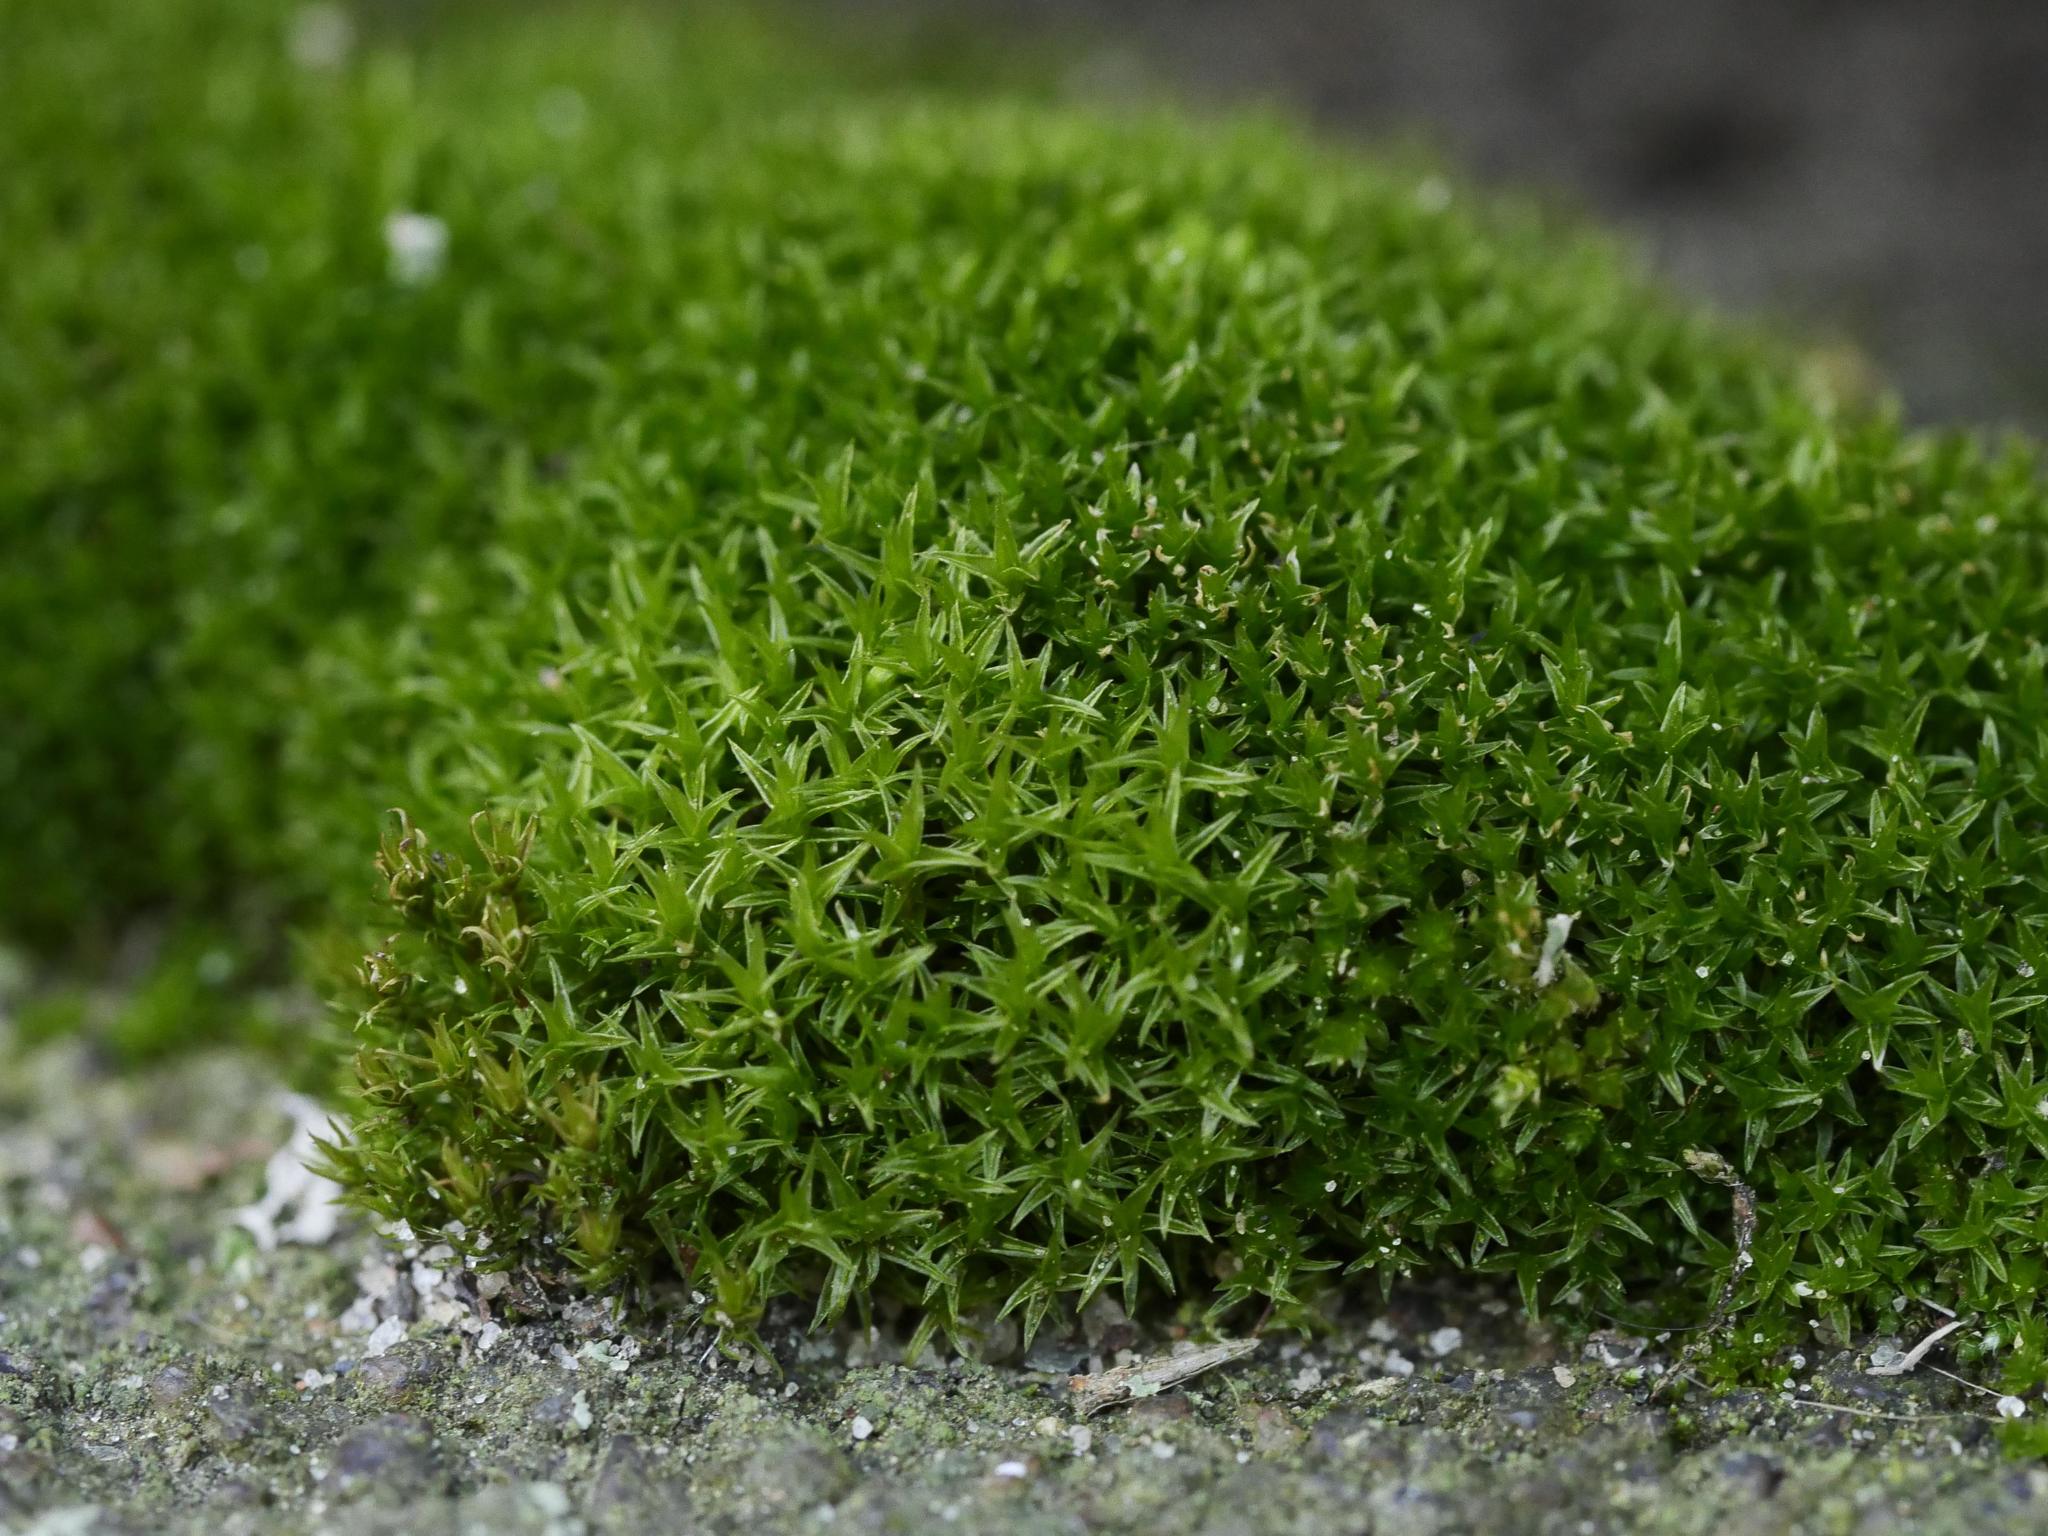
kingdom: Plantae
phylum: Bryophyta
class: Bryopsida
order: Dicranales
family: Ditrichaceae
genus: Ceratodon
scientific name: Ceratodon purpureus
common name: Redshank
